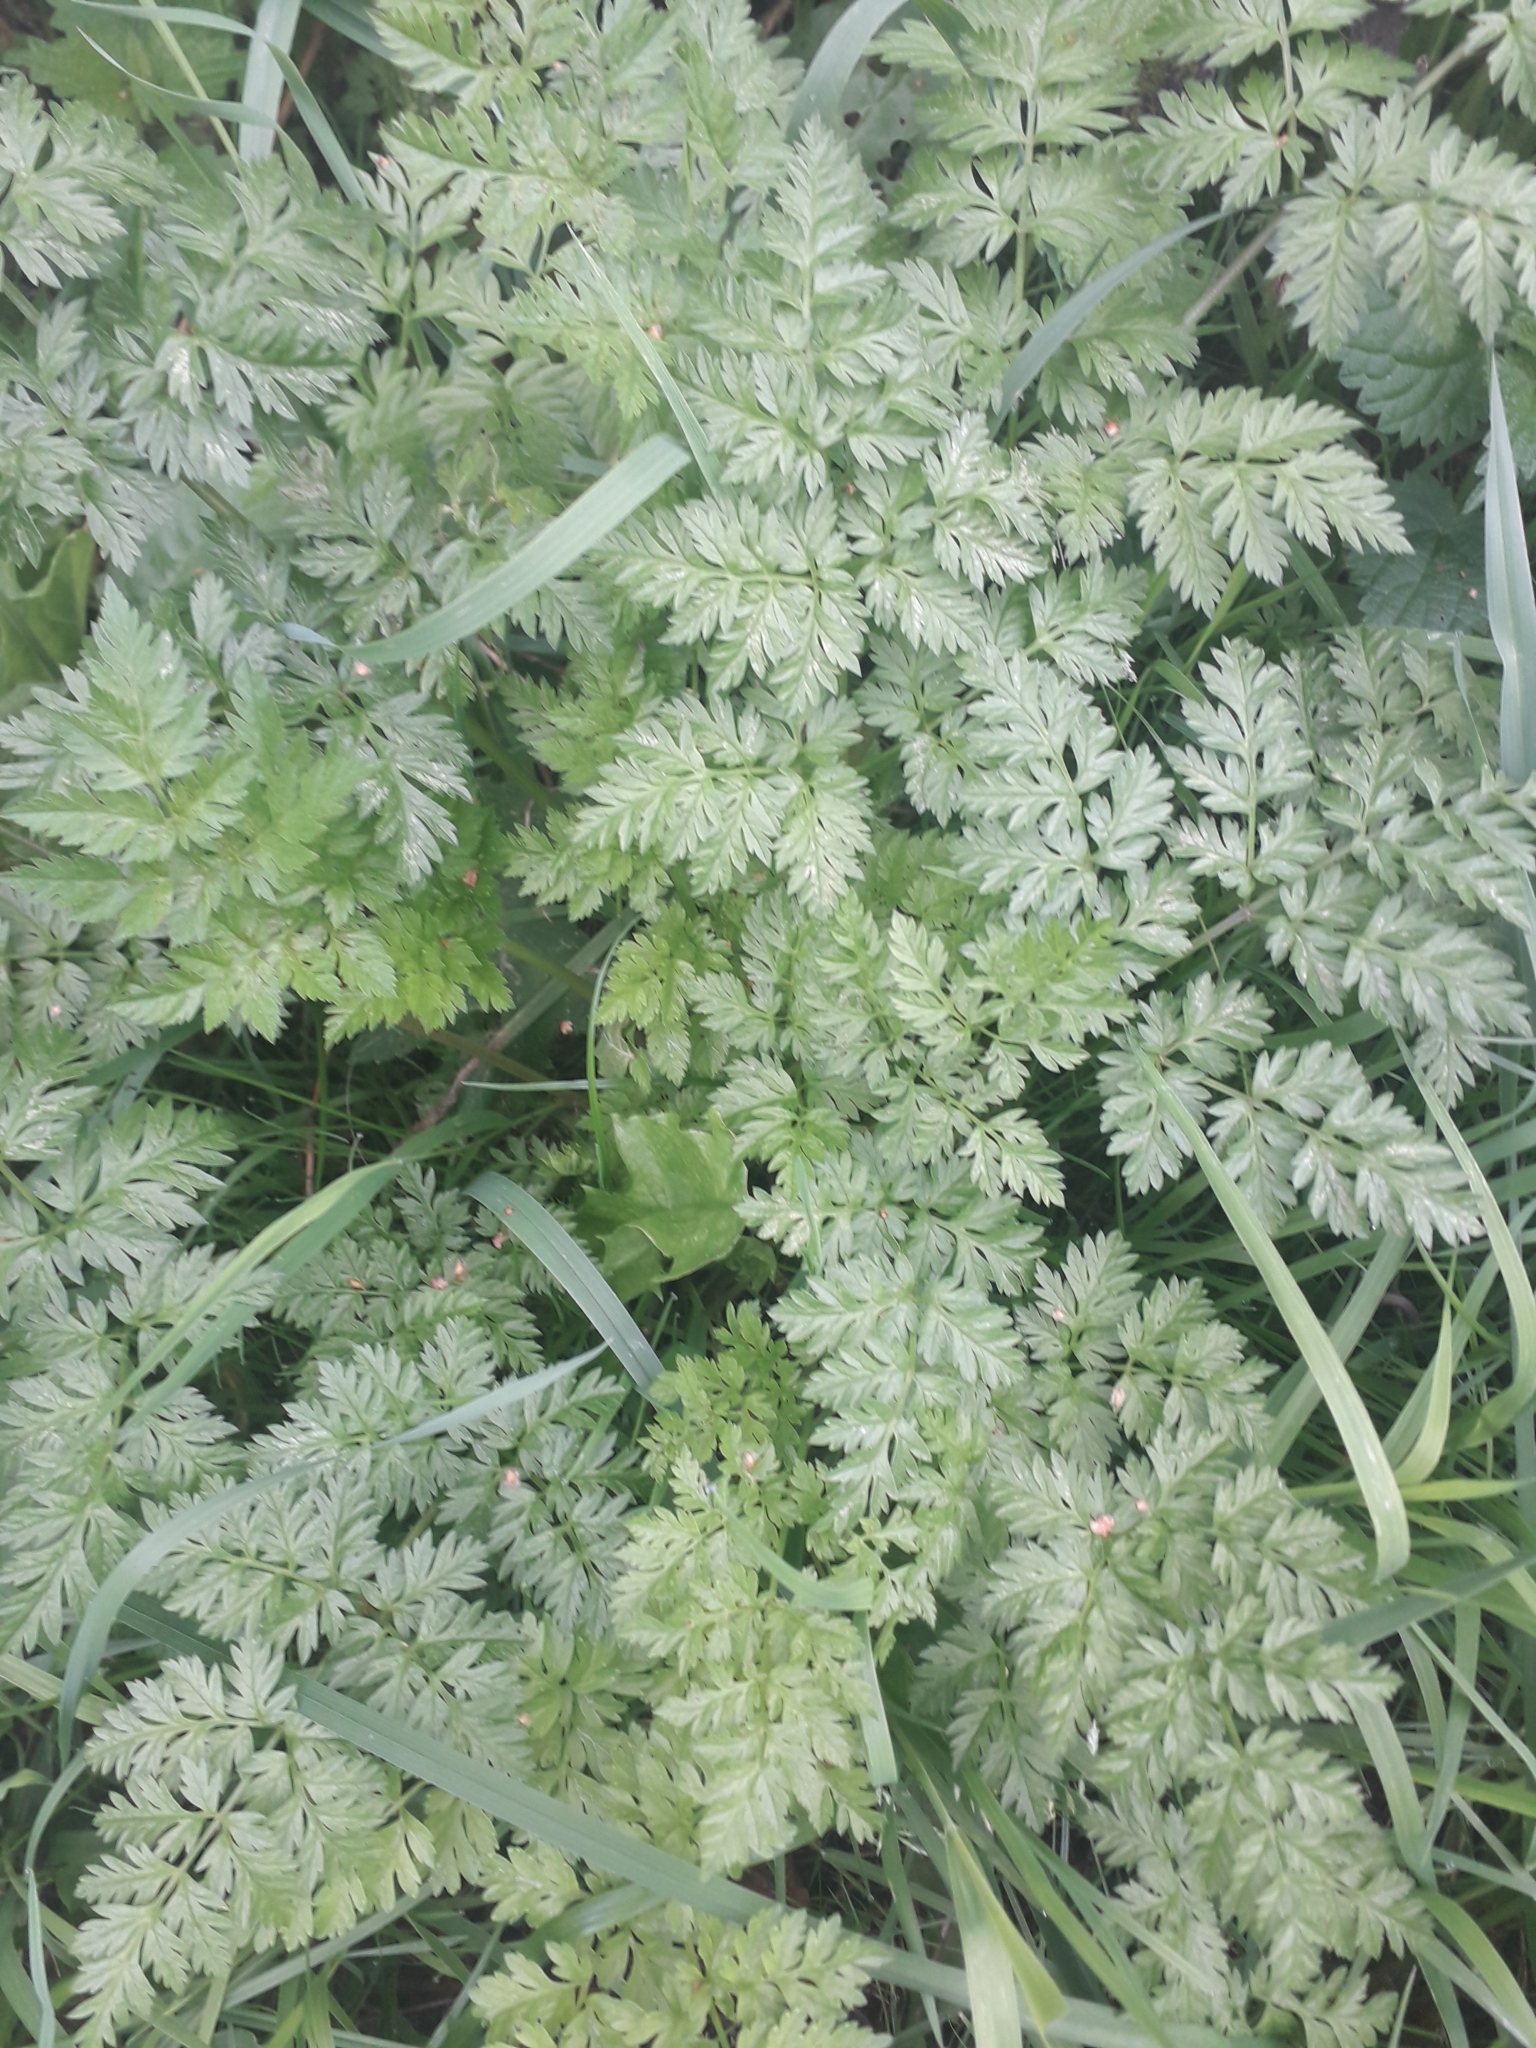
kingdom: Plantae
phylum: Tracheophyta
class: Magnoliopsida
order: Apiales
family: Apiaceae
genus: Anthriscus
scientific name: Anthriscus sylvestris
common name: Cow parsley
